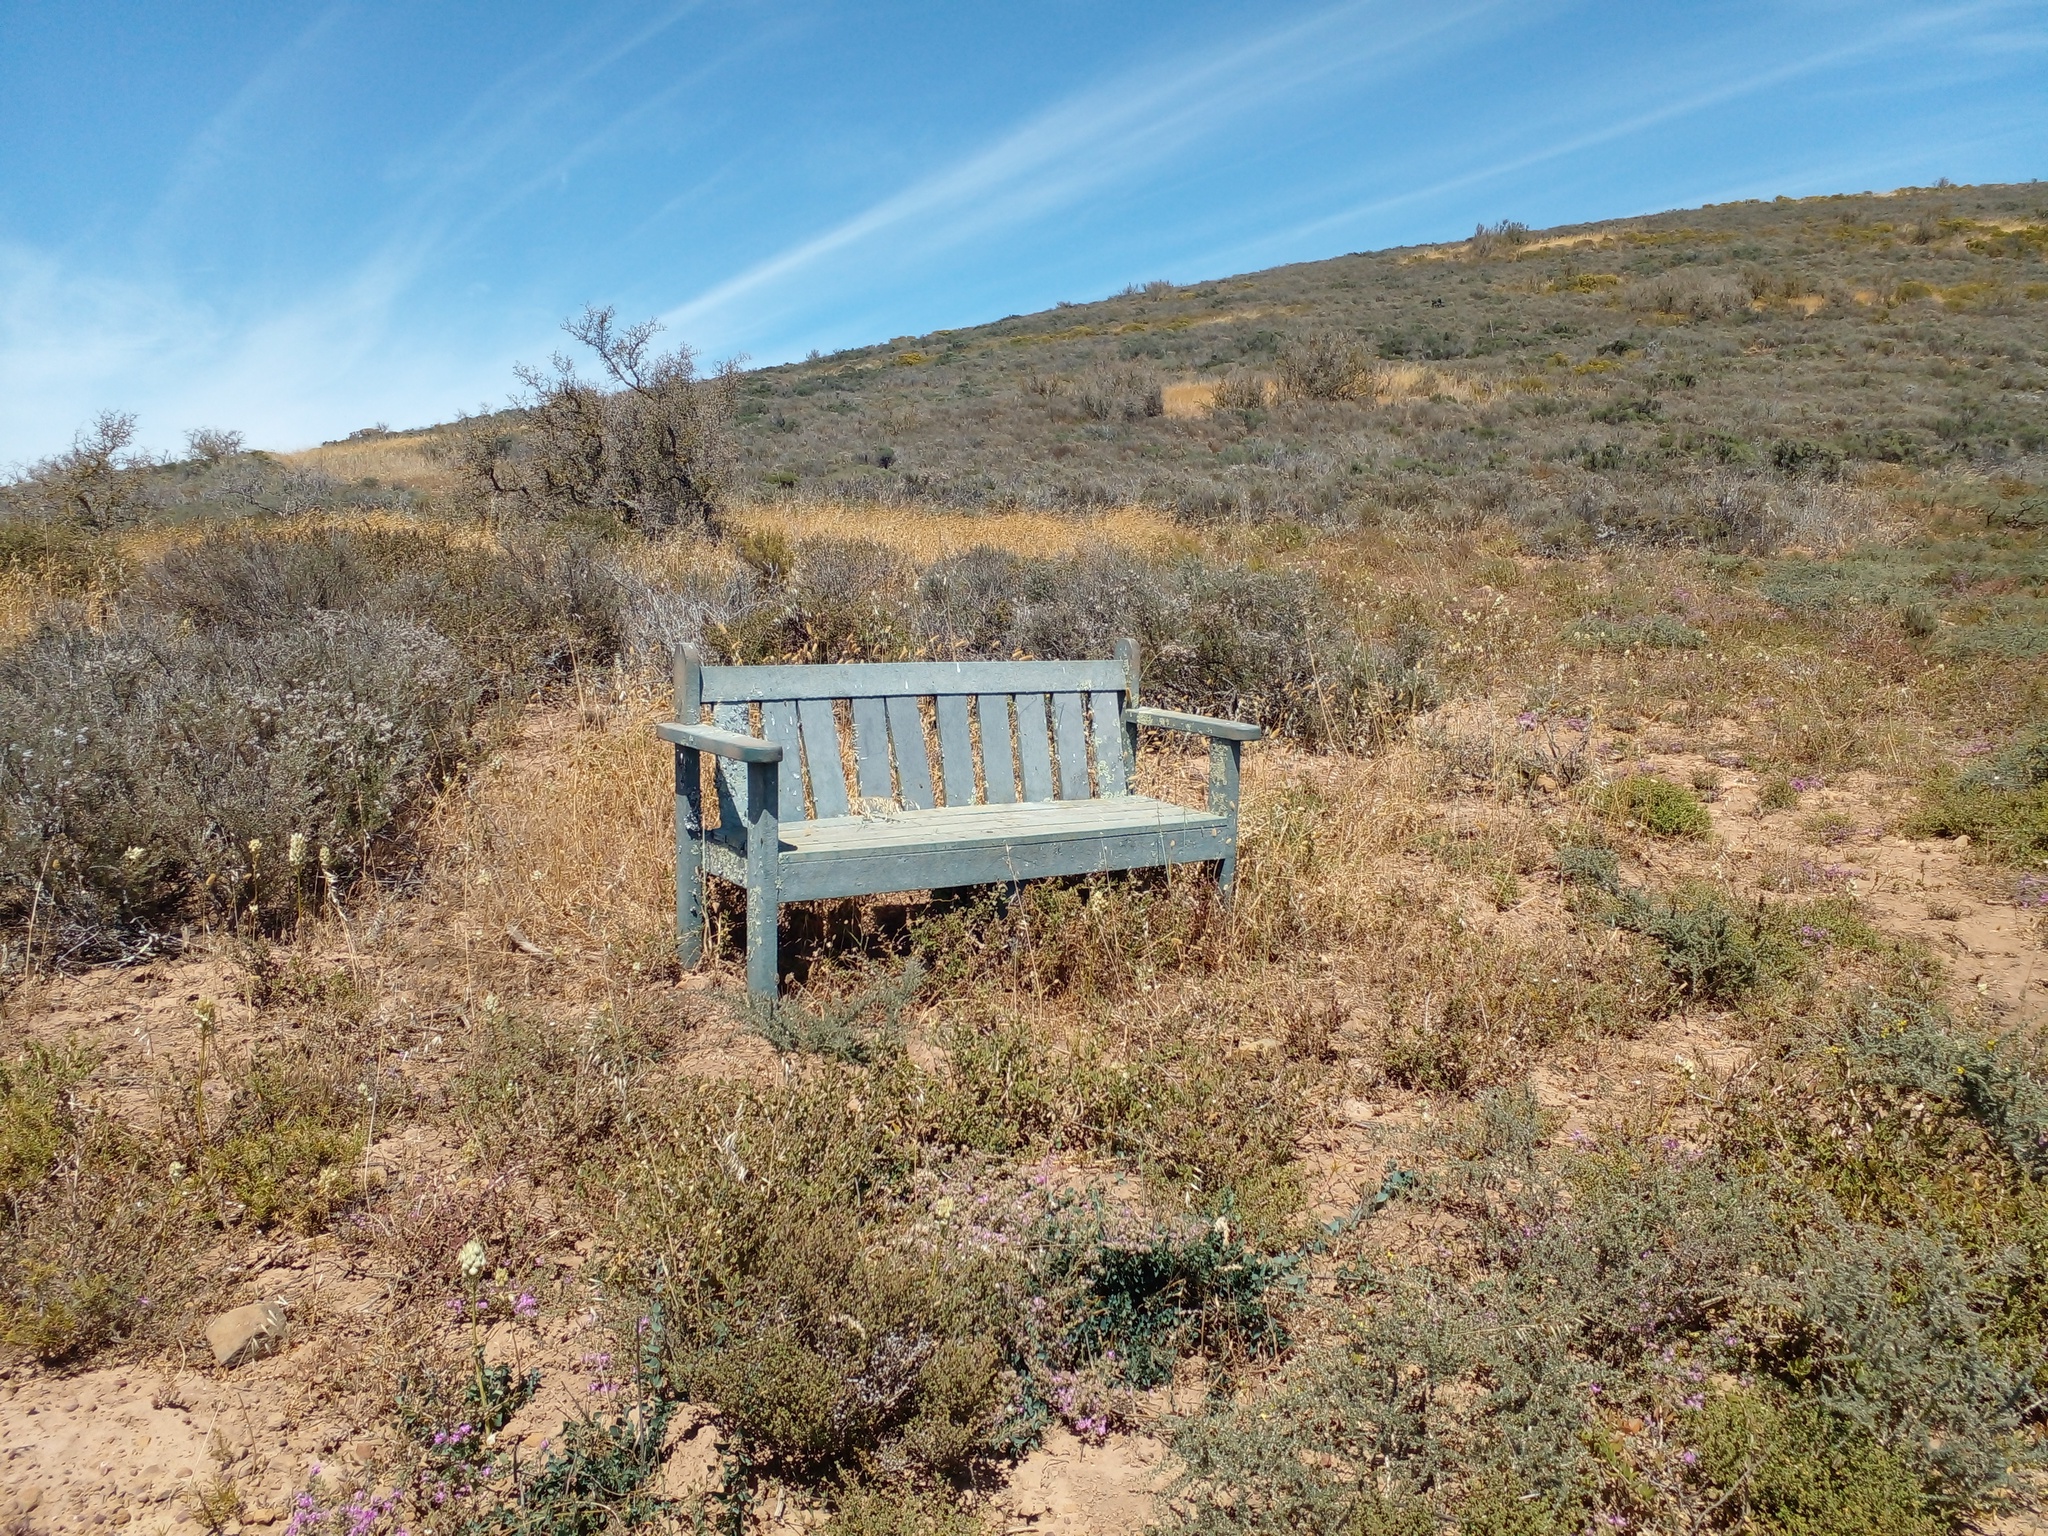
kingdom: Plantae
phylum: Tracheophyta
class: Magnoliopsida
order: Fabales
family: Fabaceae
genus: Aspalathus
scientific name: Aspalathus acanthophylla
